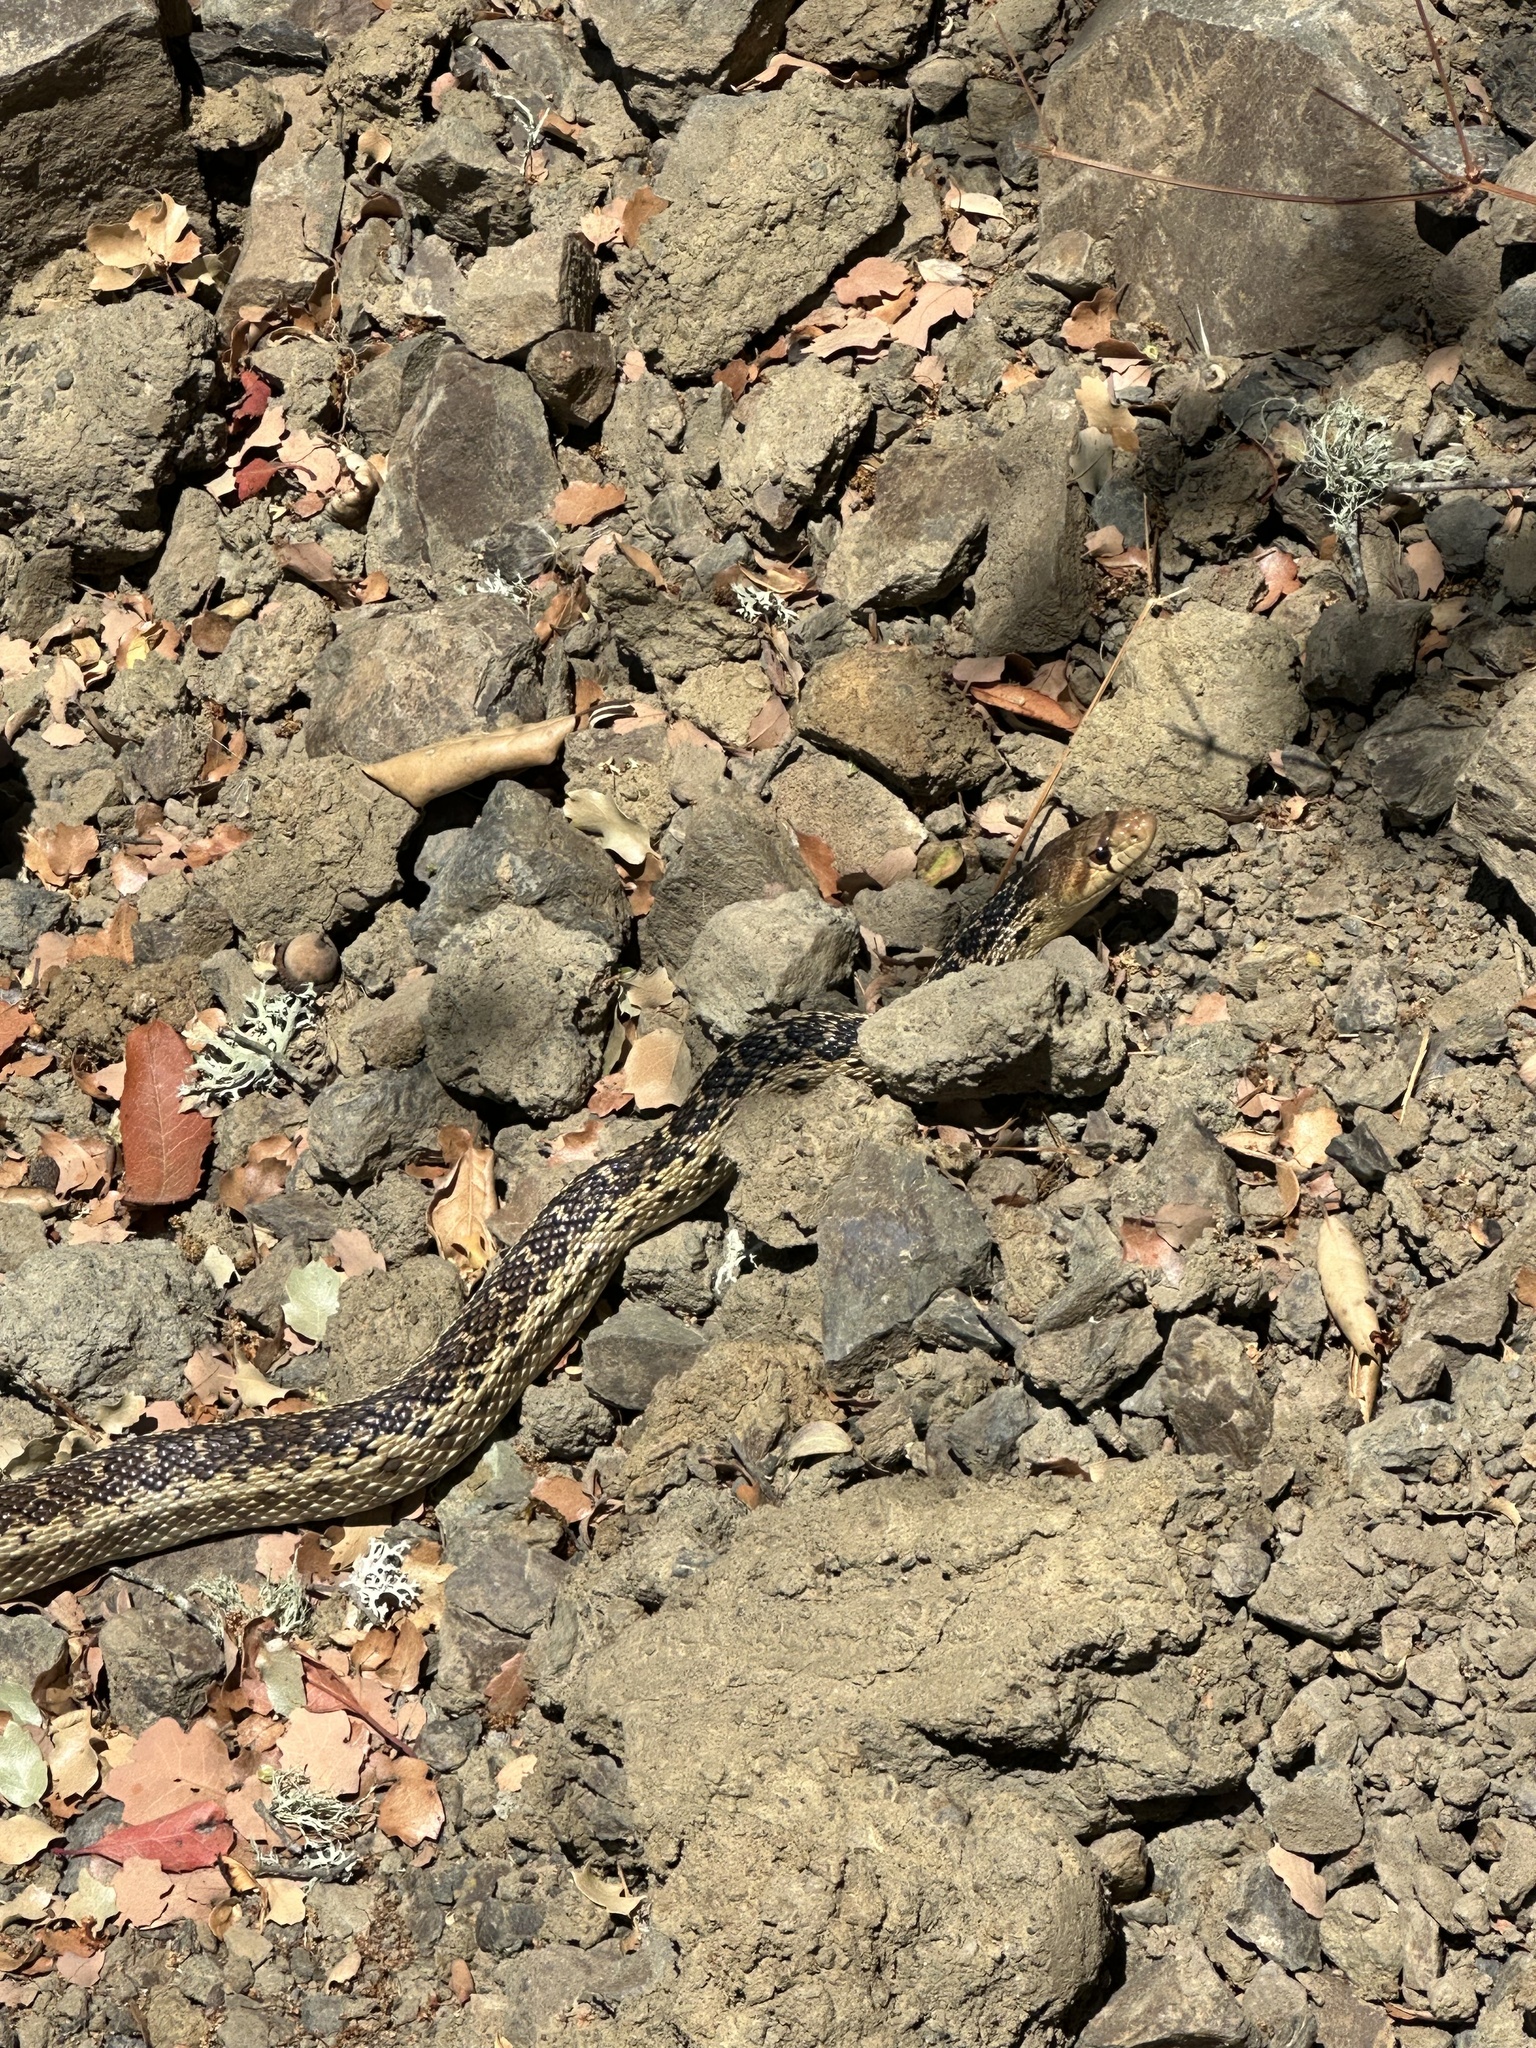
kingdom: Animalia
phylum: Chordata
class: Squamata
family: Colubridae
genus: Pituophis
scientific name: Pituophis catenifer
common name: Gopher snake
